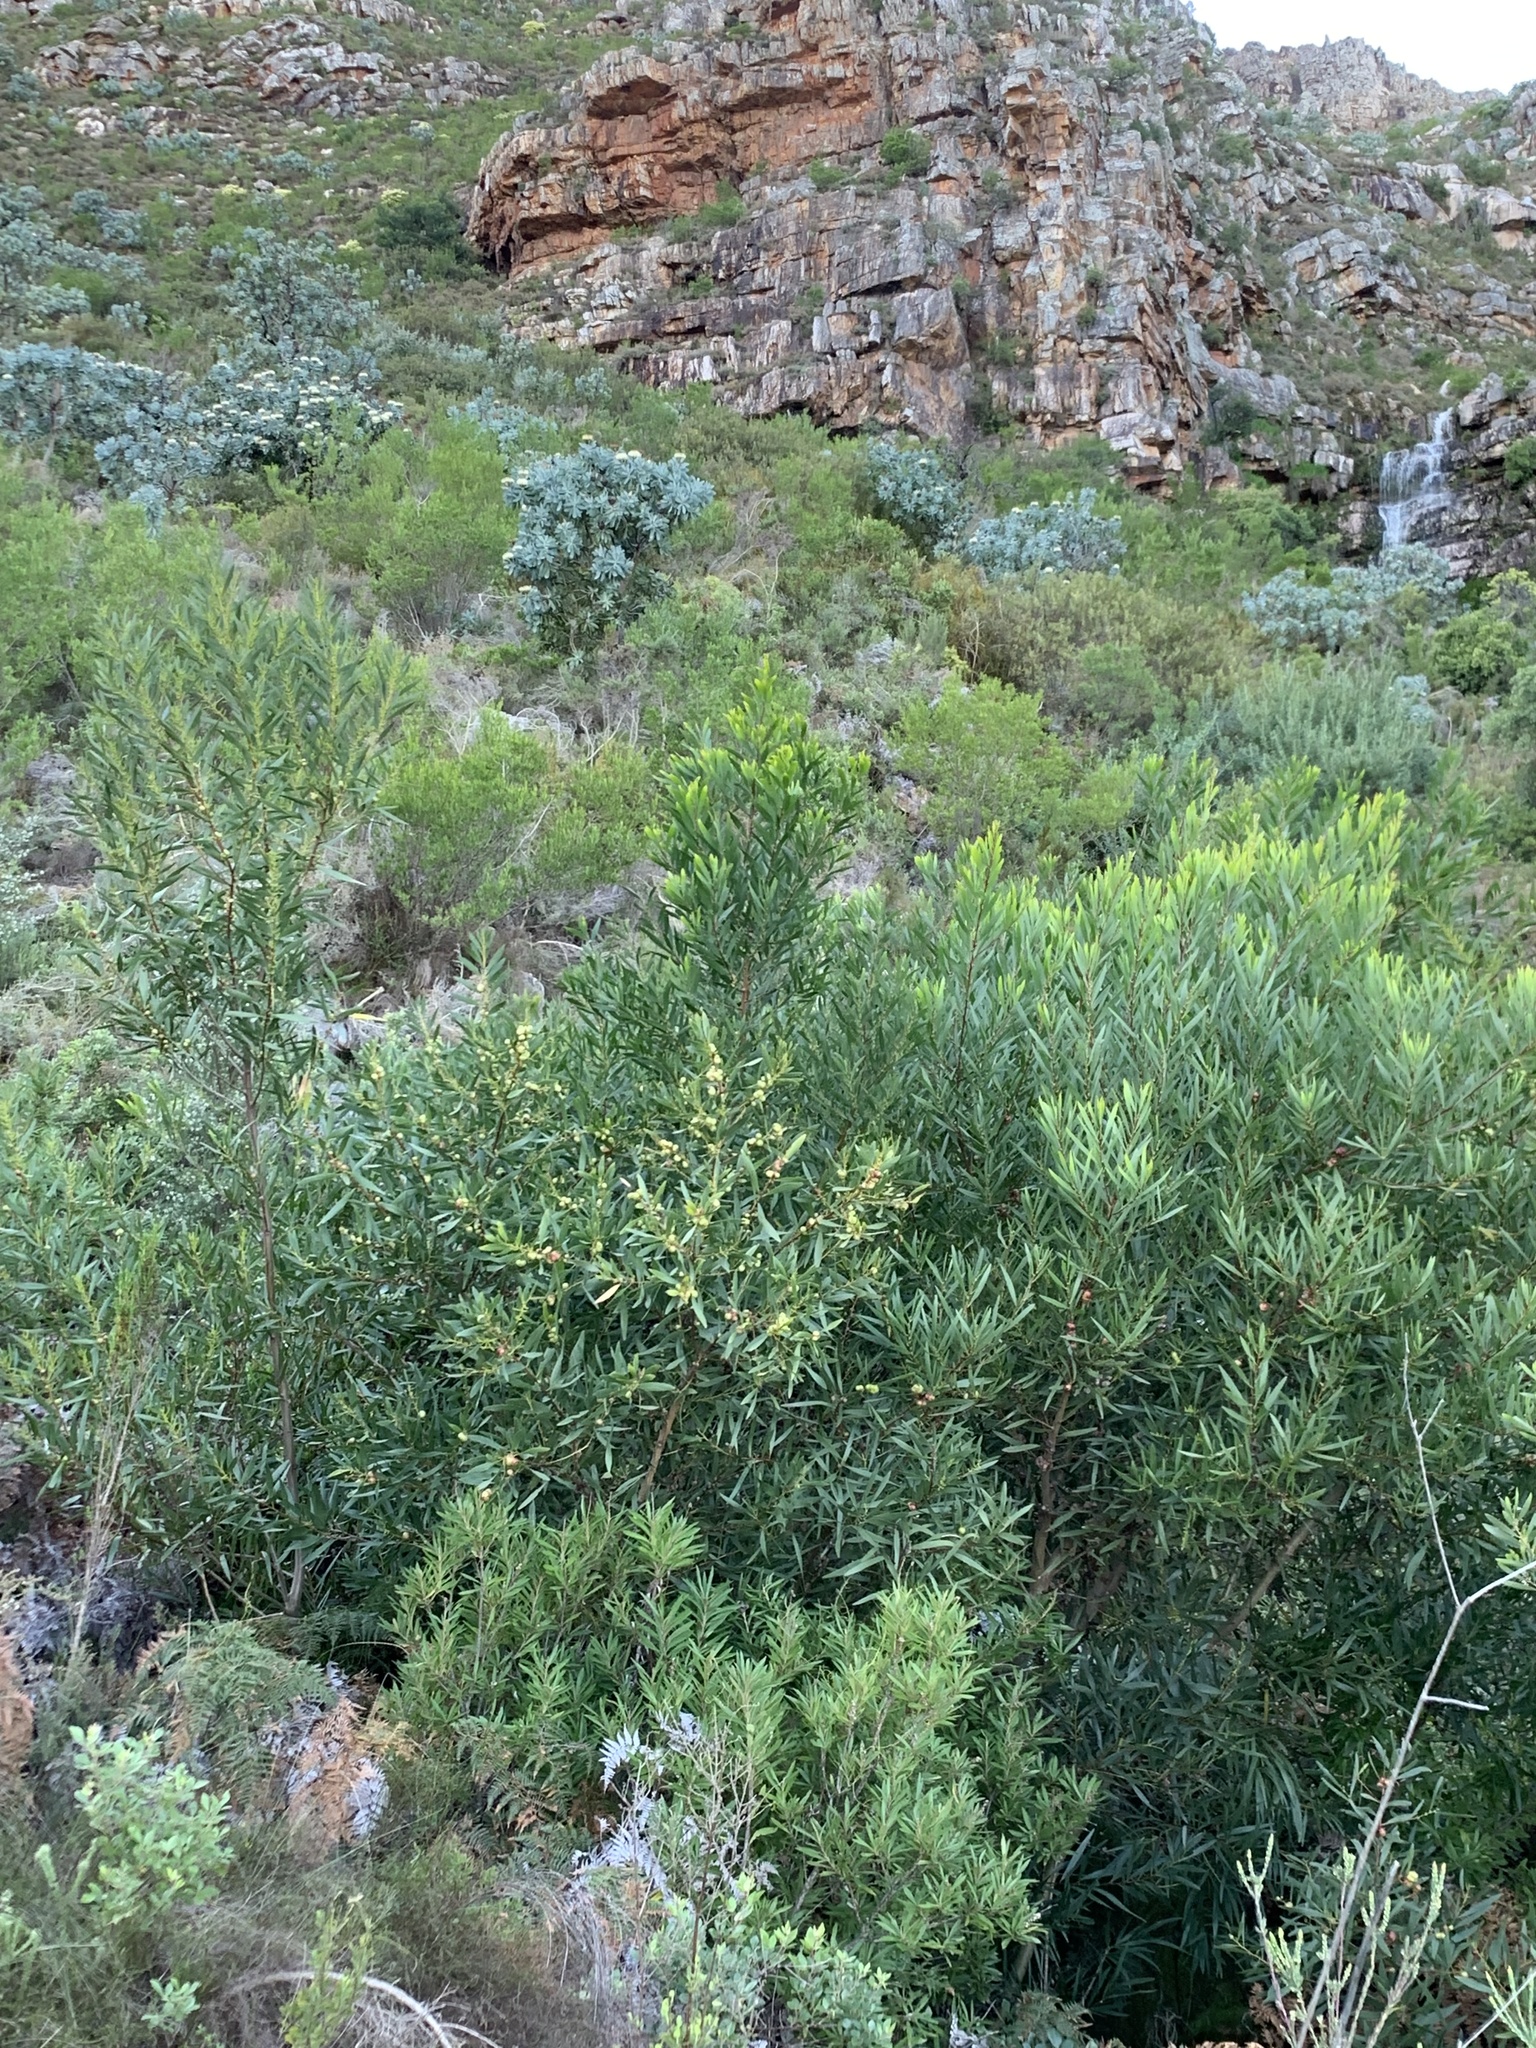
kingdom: Plantae
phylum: Tracheophyta
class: Magnoliopsida
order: Fabales
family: Fabaceae
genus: Acacia
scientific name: Acacia longifolia
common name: Sydney golden wattle
